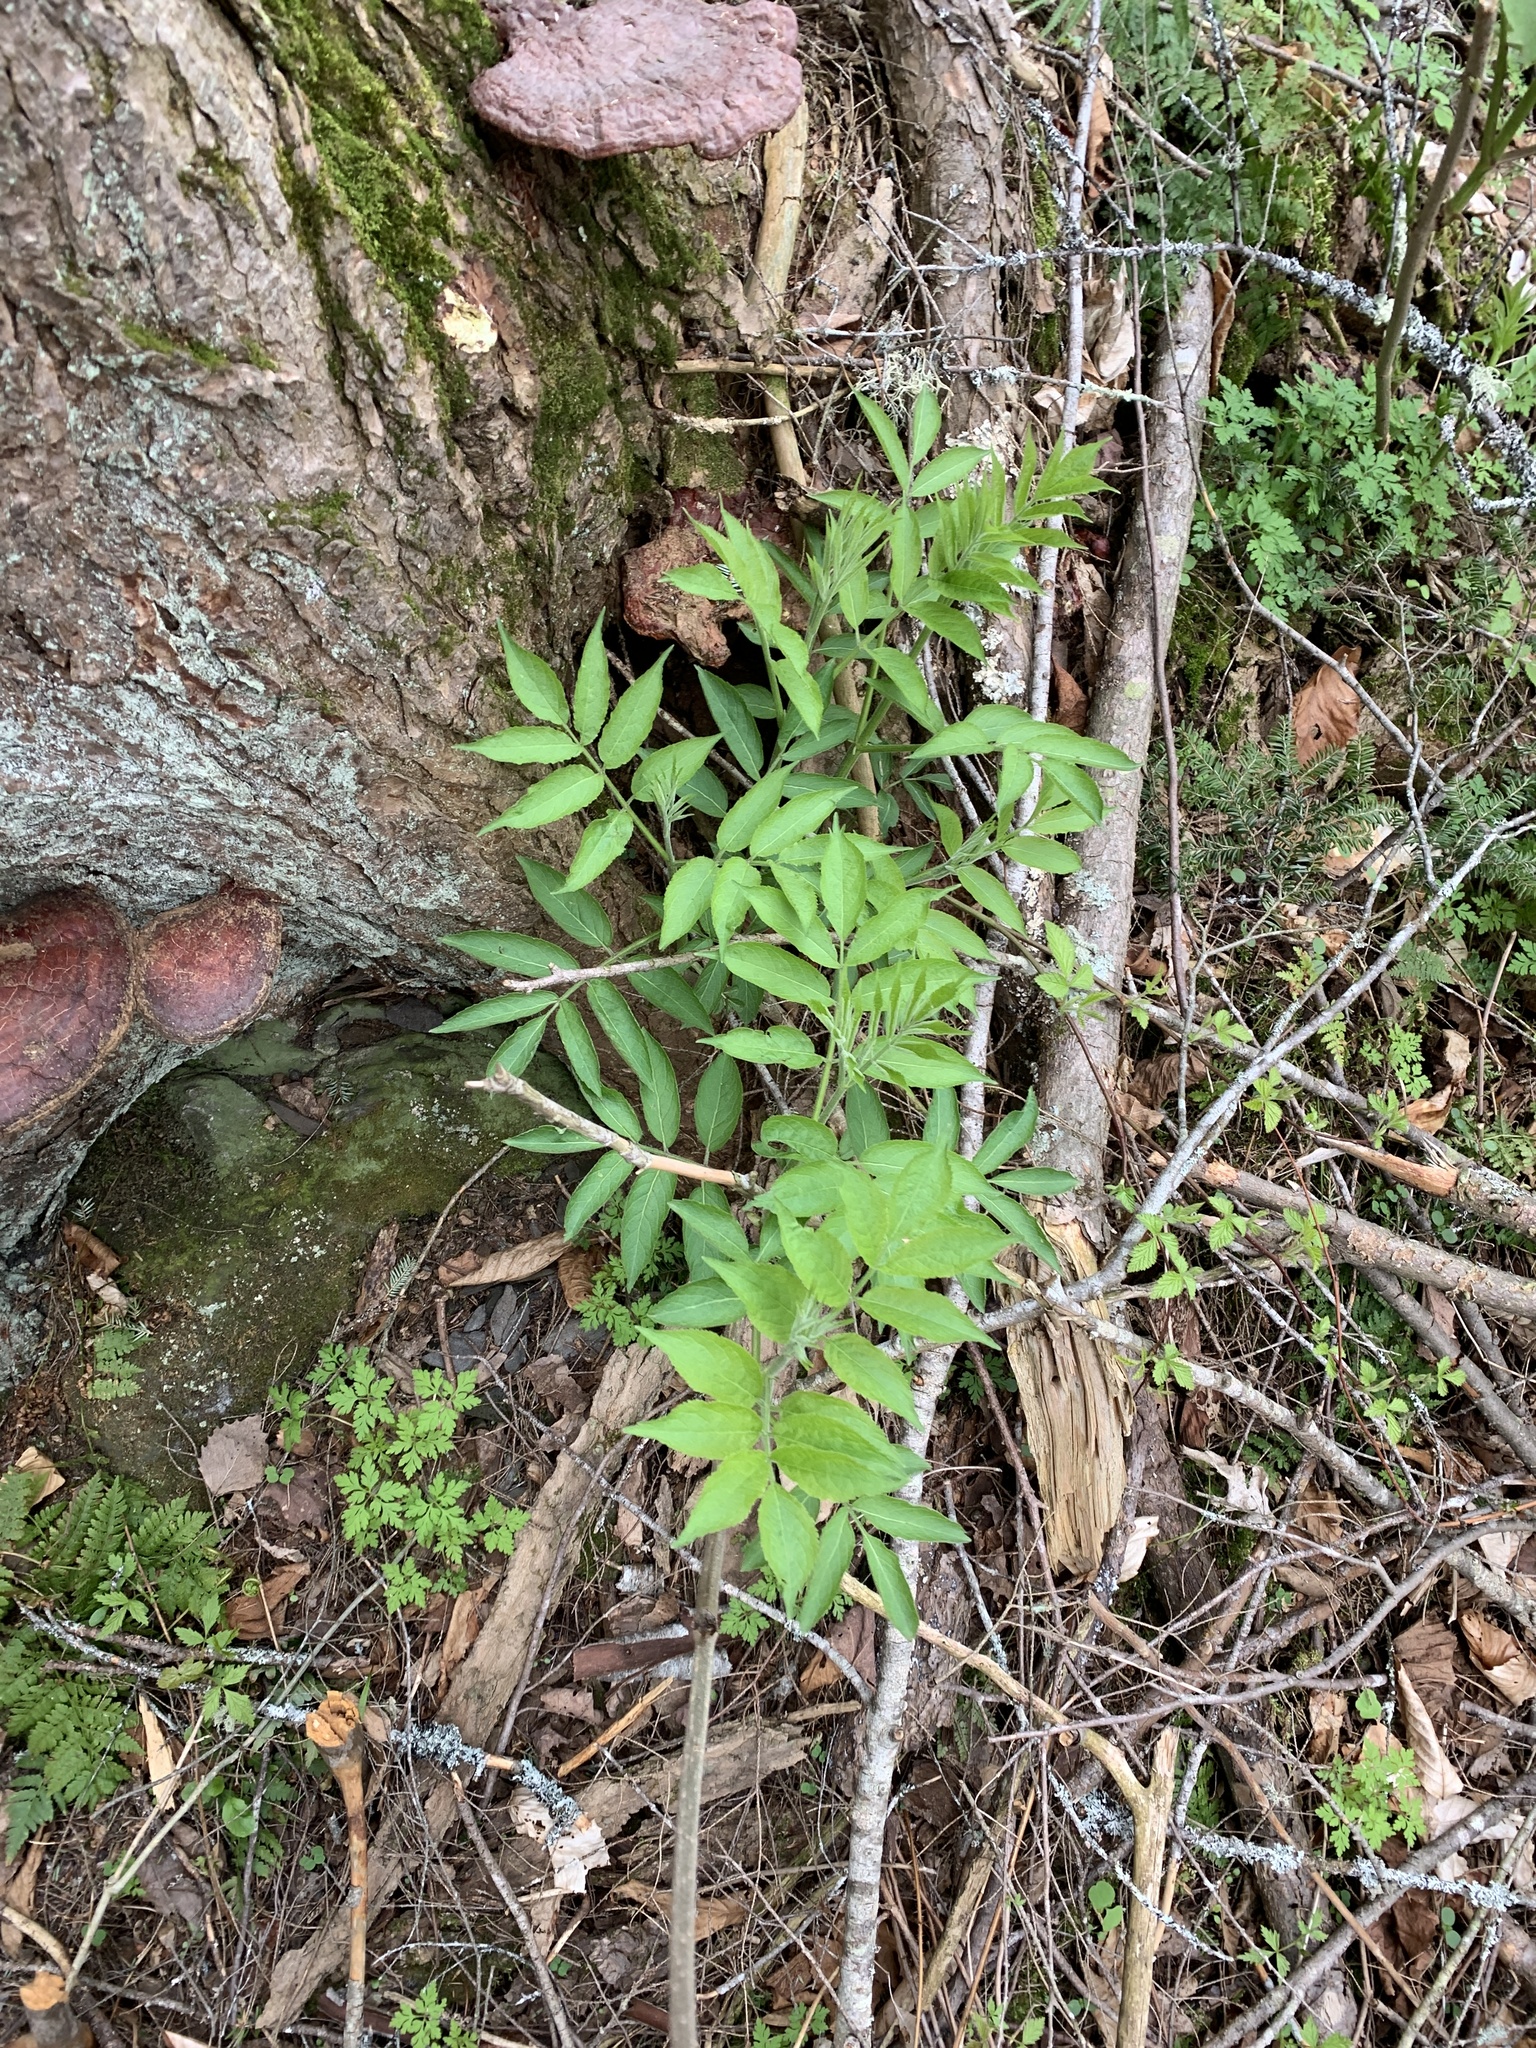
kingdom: Plantae
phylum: Tracheophyta
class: Magnoliopsida
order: Dipsacales
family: Viburnaceae
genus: Sambucus
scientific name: Sambucus racemosa
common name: Red-berried elder
